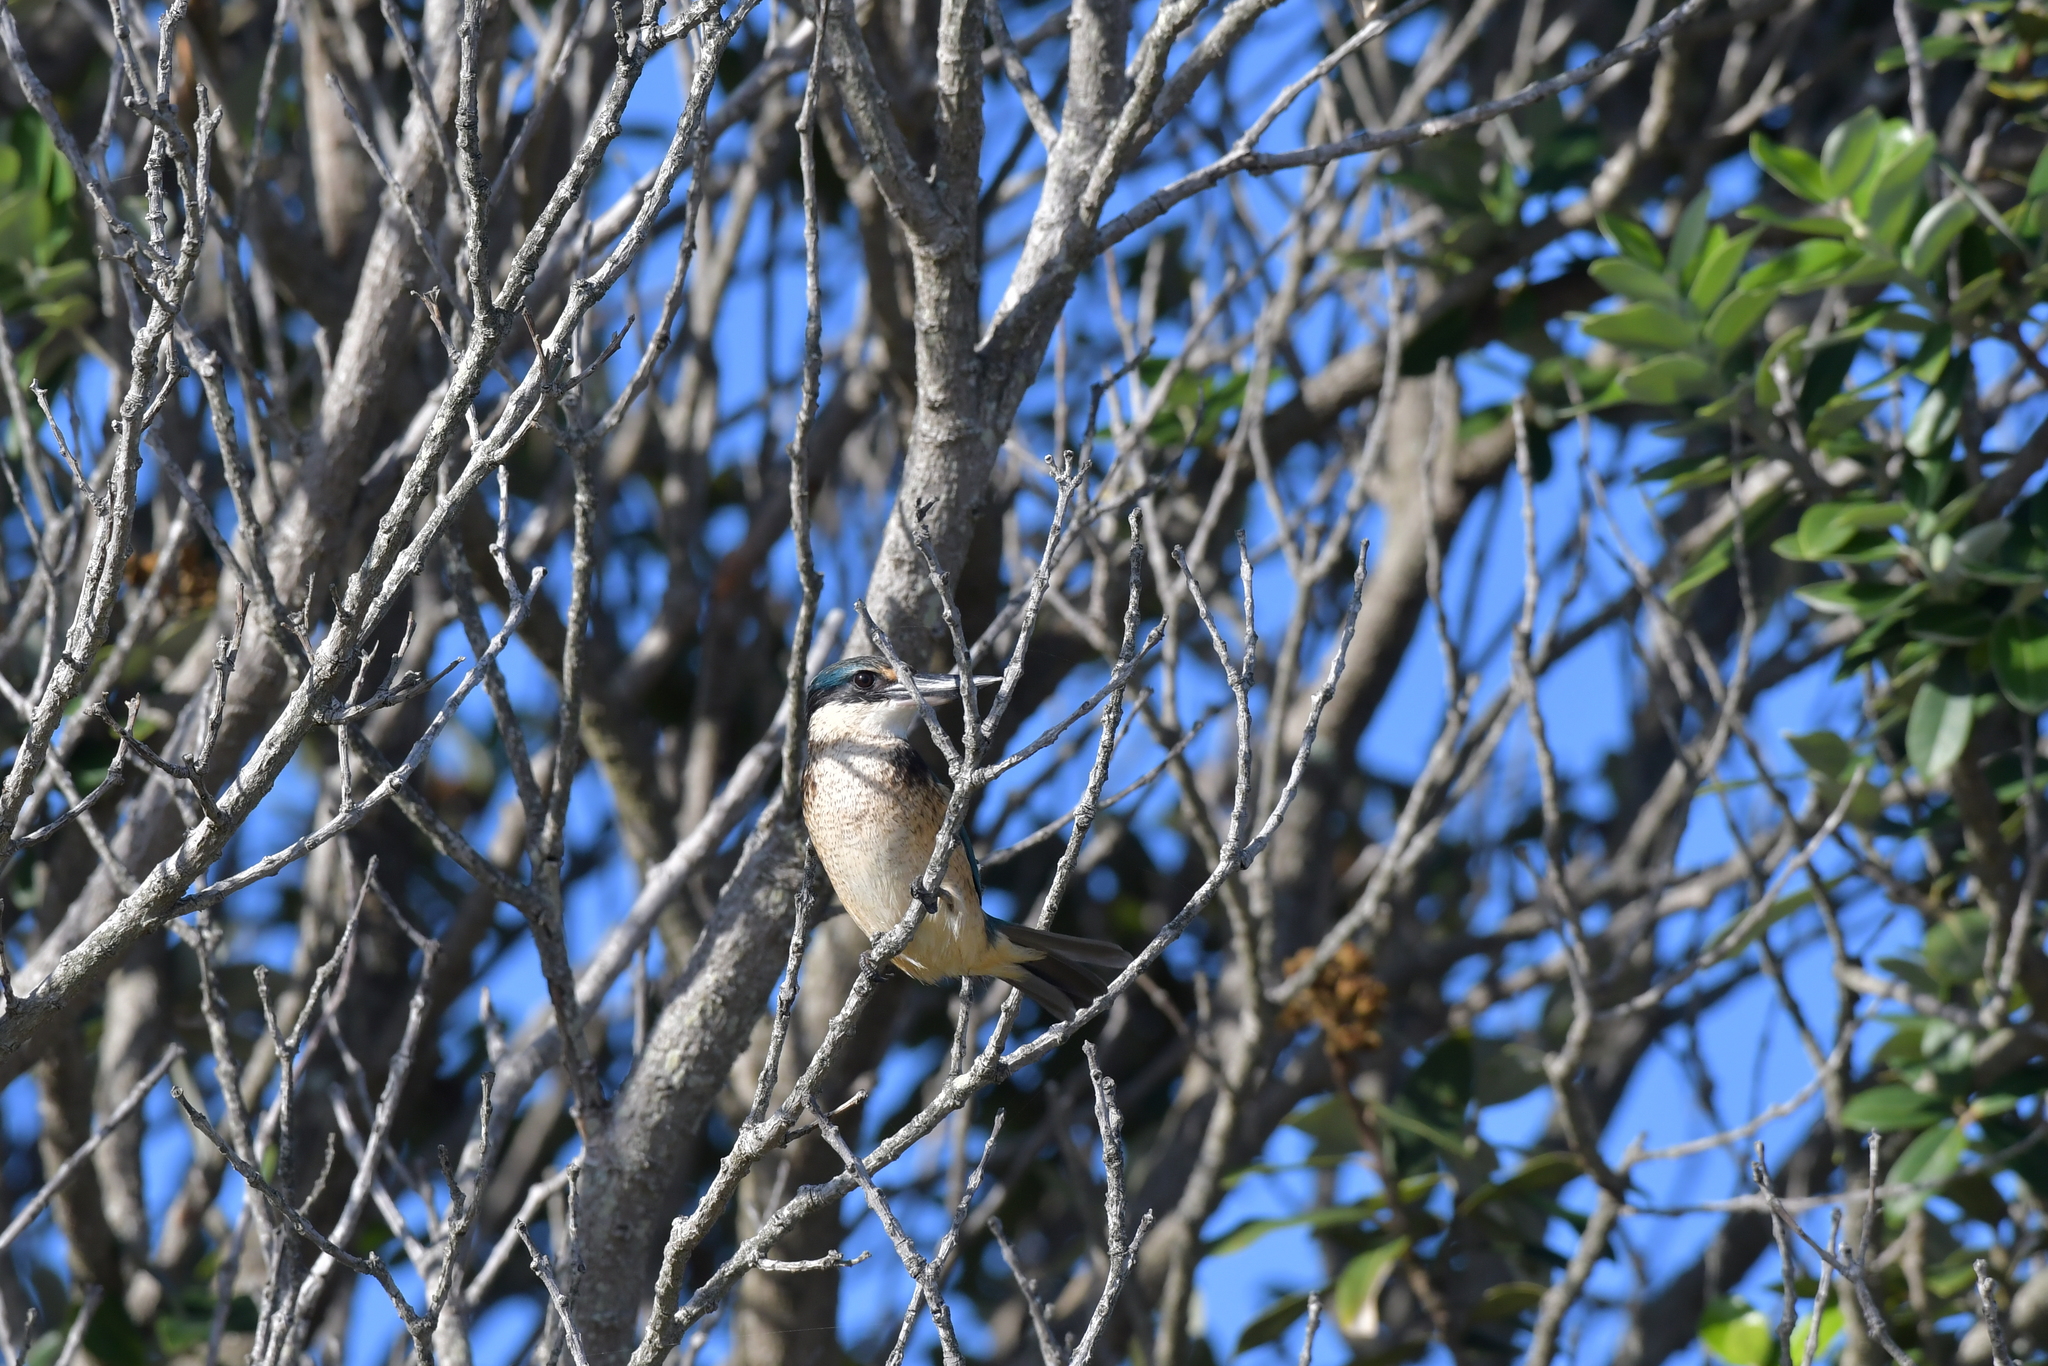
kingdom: Animalia
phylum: Chordata
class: Aves
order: Coraciiformes
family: Alcedinidae
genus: Todiramphus
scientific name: Todiramphus sanctus
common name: Sacred kingfisher
